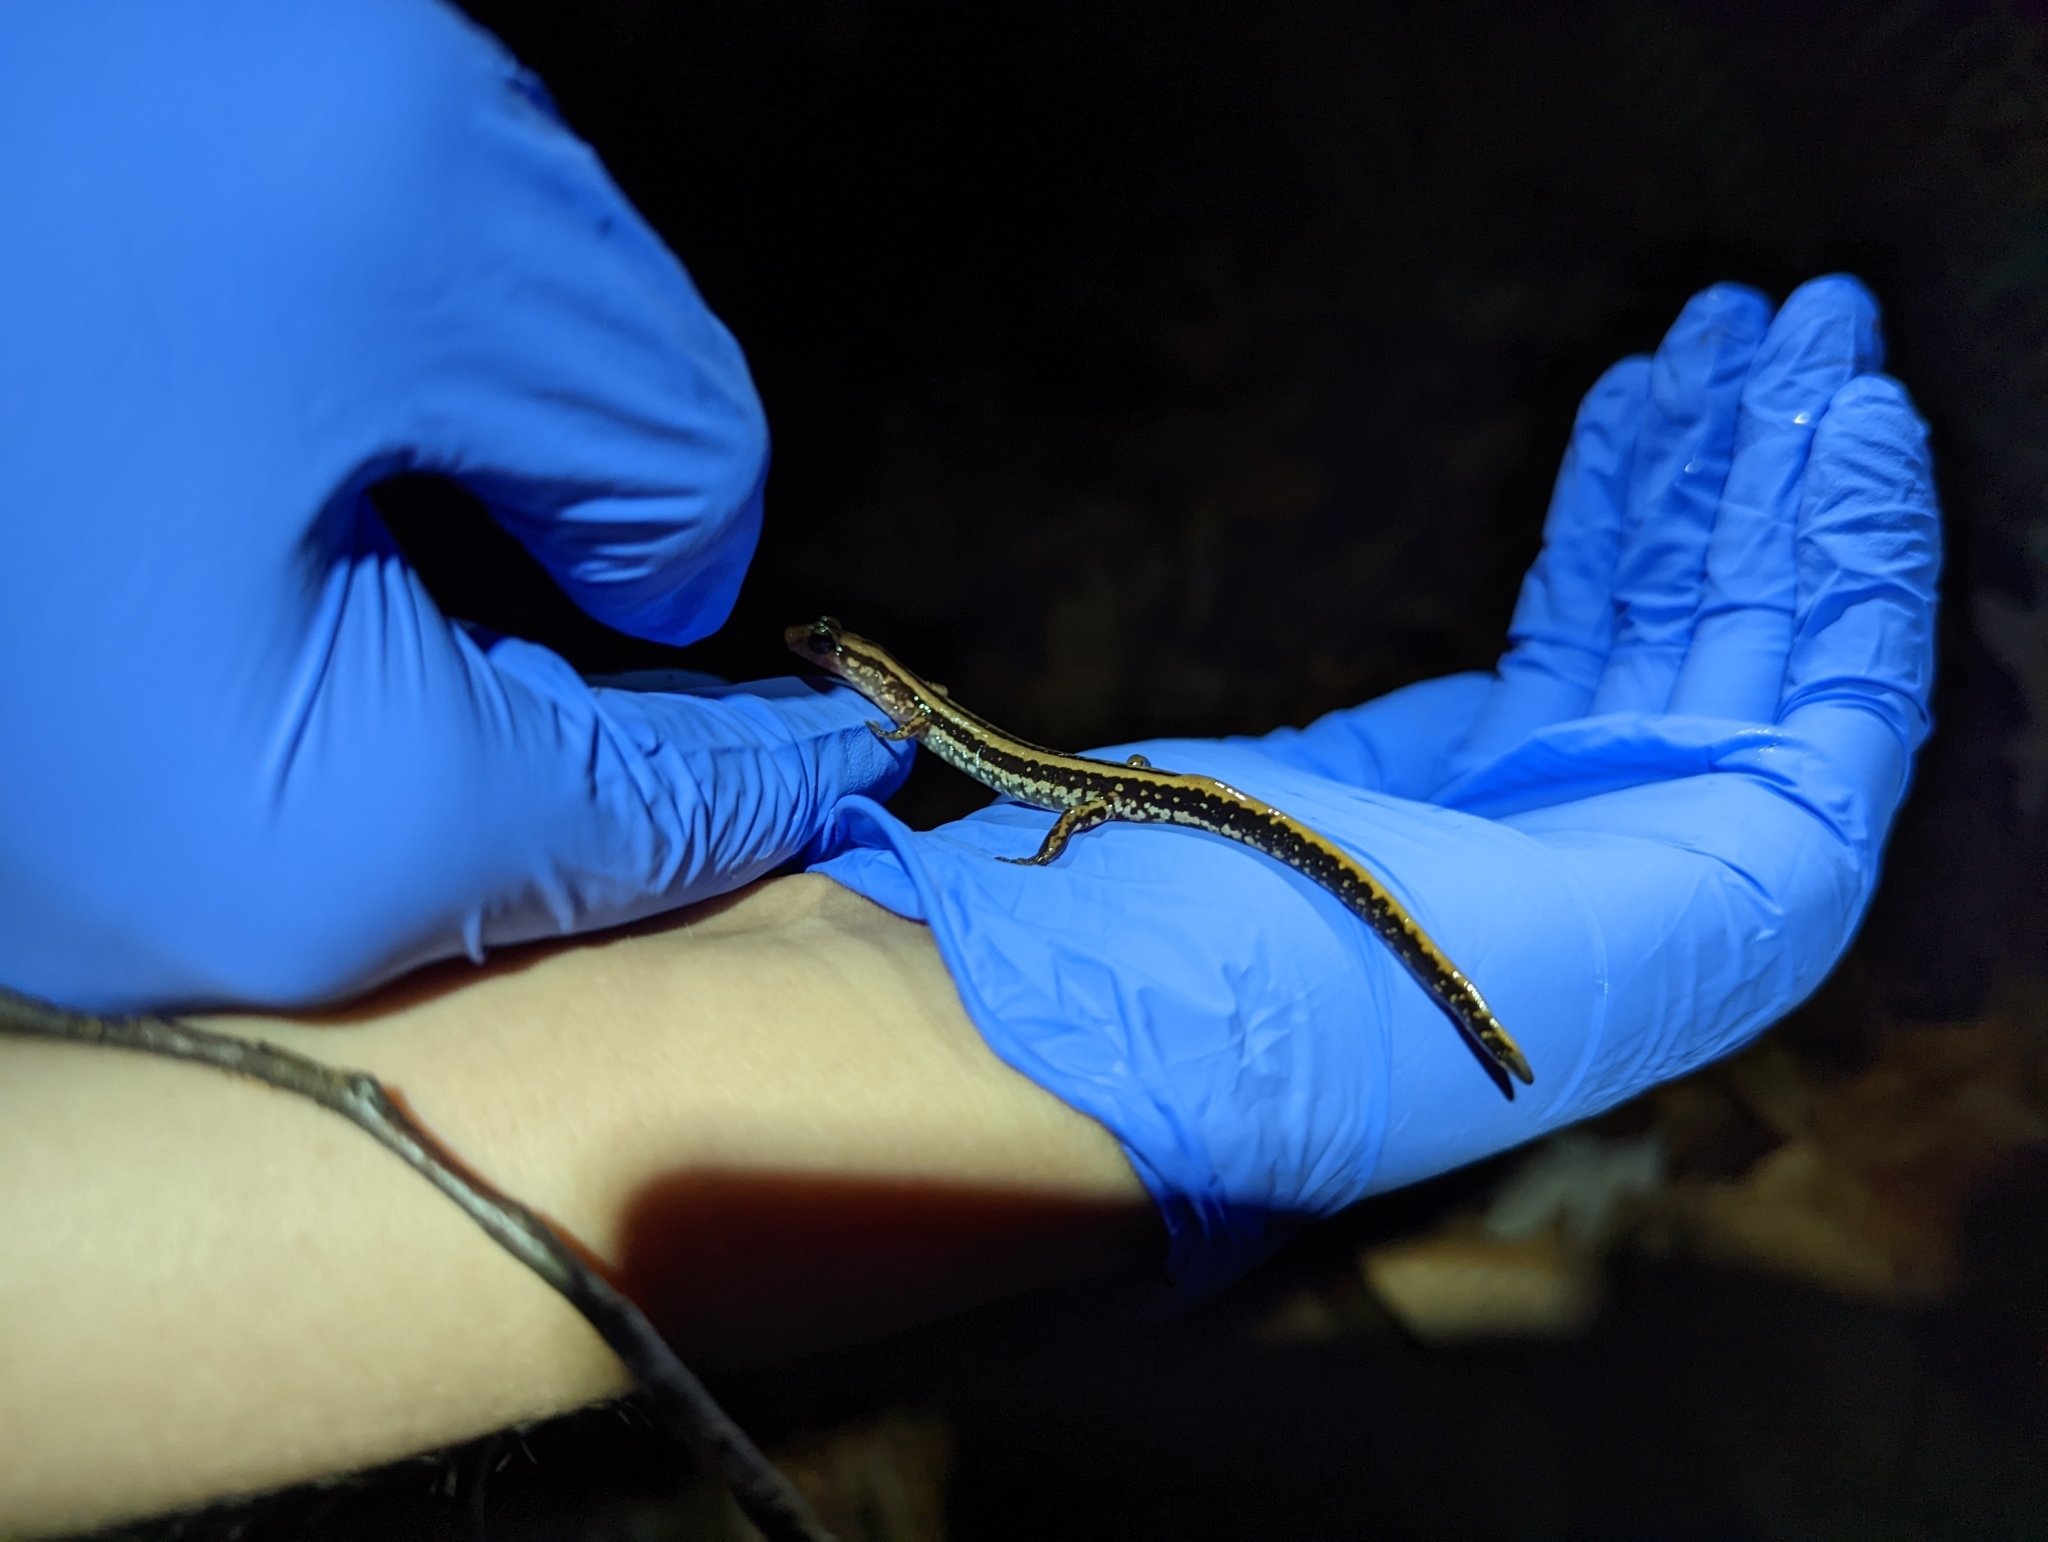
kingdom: Animalia
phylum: Chordata
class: Amphibia
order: Caudata
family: Plethodontidae
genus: Eurycea
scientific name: Eurycea guttolineata
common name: Three-lined salamander
